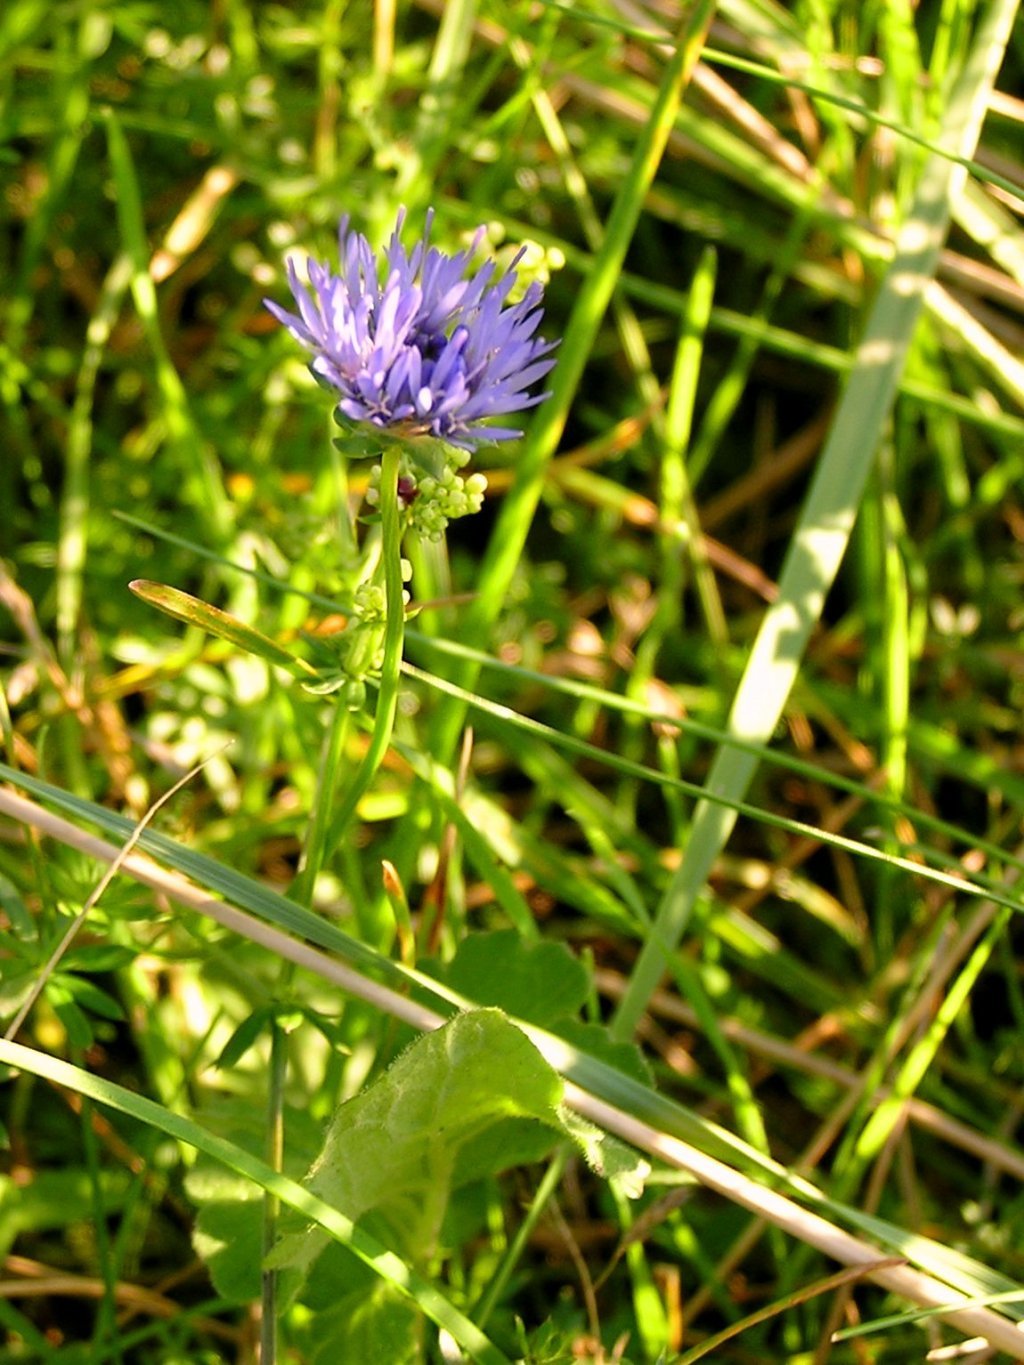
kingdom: Plantae
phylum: Tracheophyta
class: Magnoliopsida
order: Asterales
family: Campanulaceae
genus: Jasione
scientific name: Jasione montana
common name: Sheep's-bit
